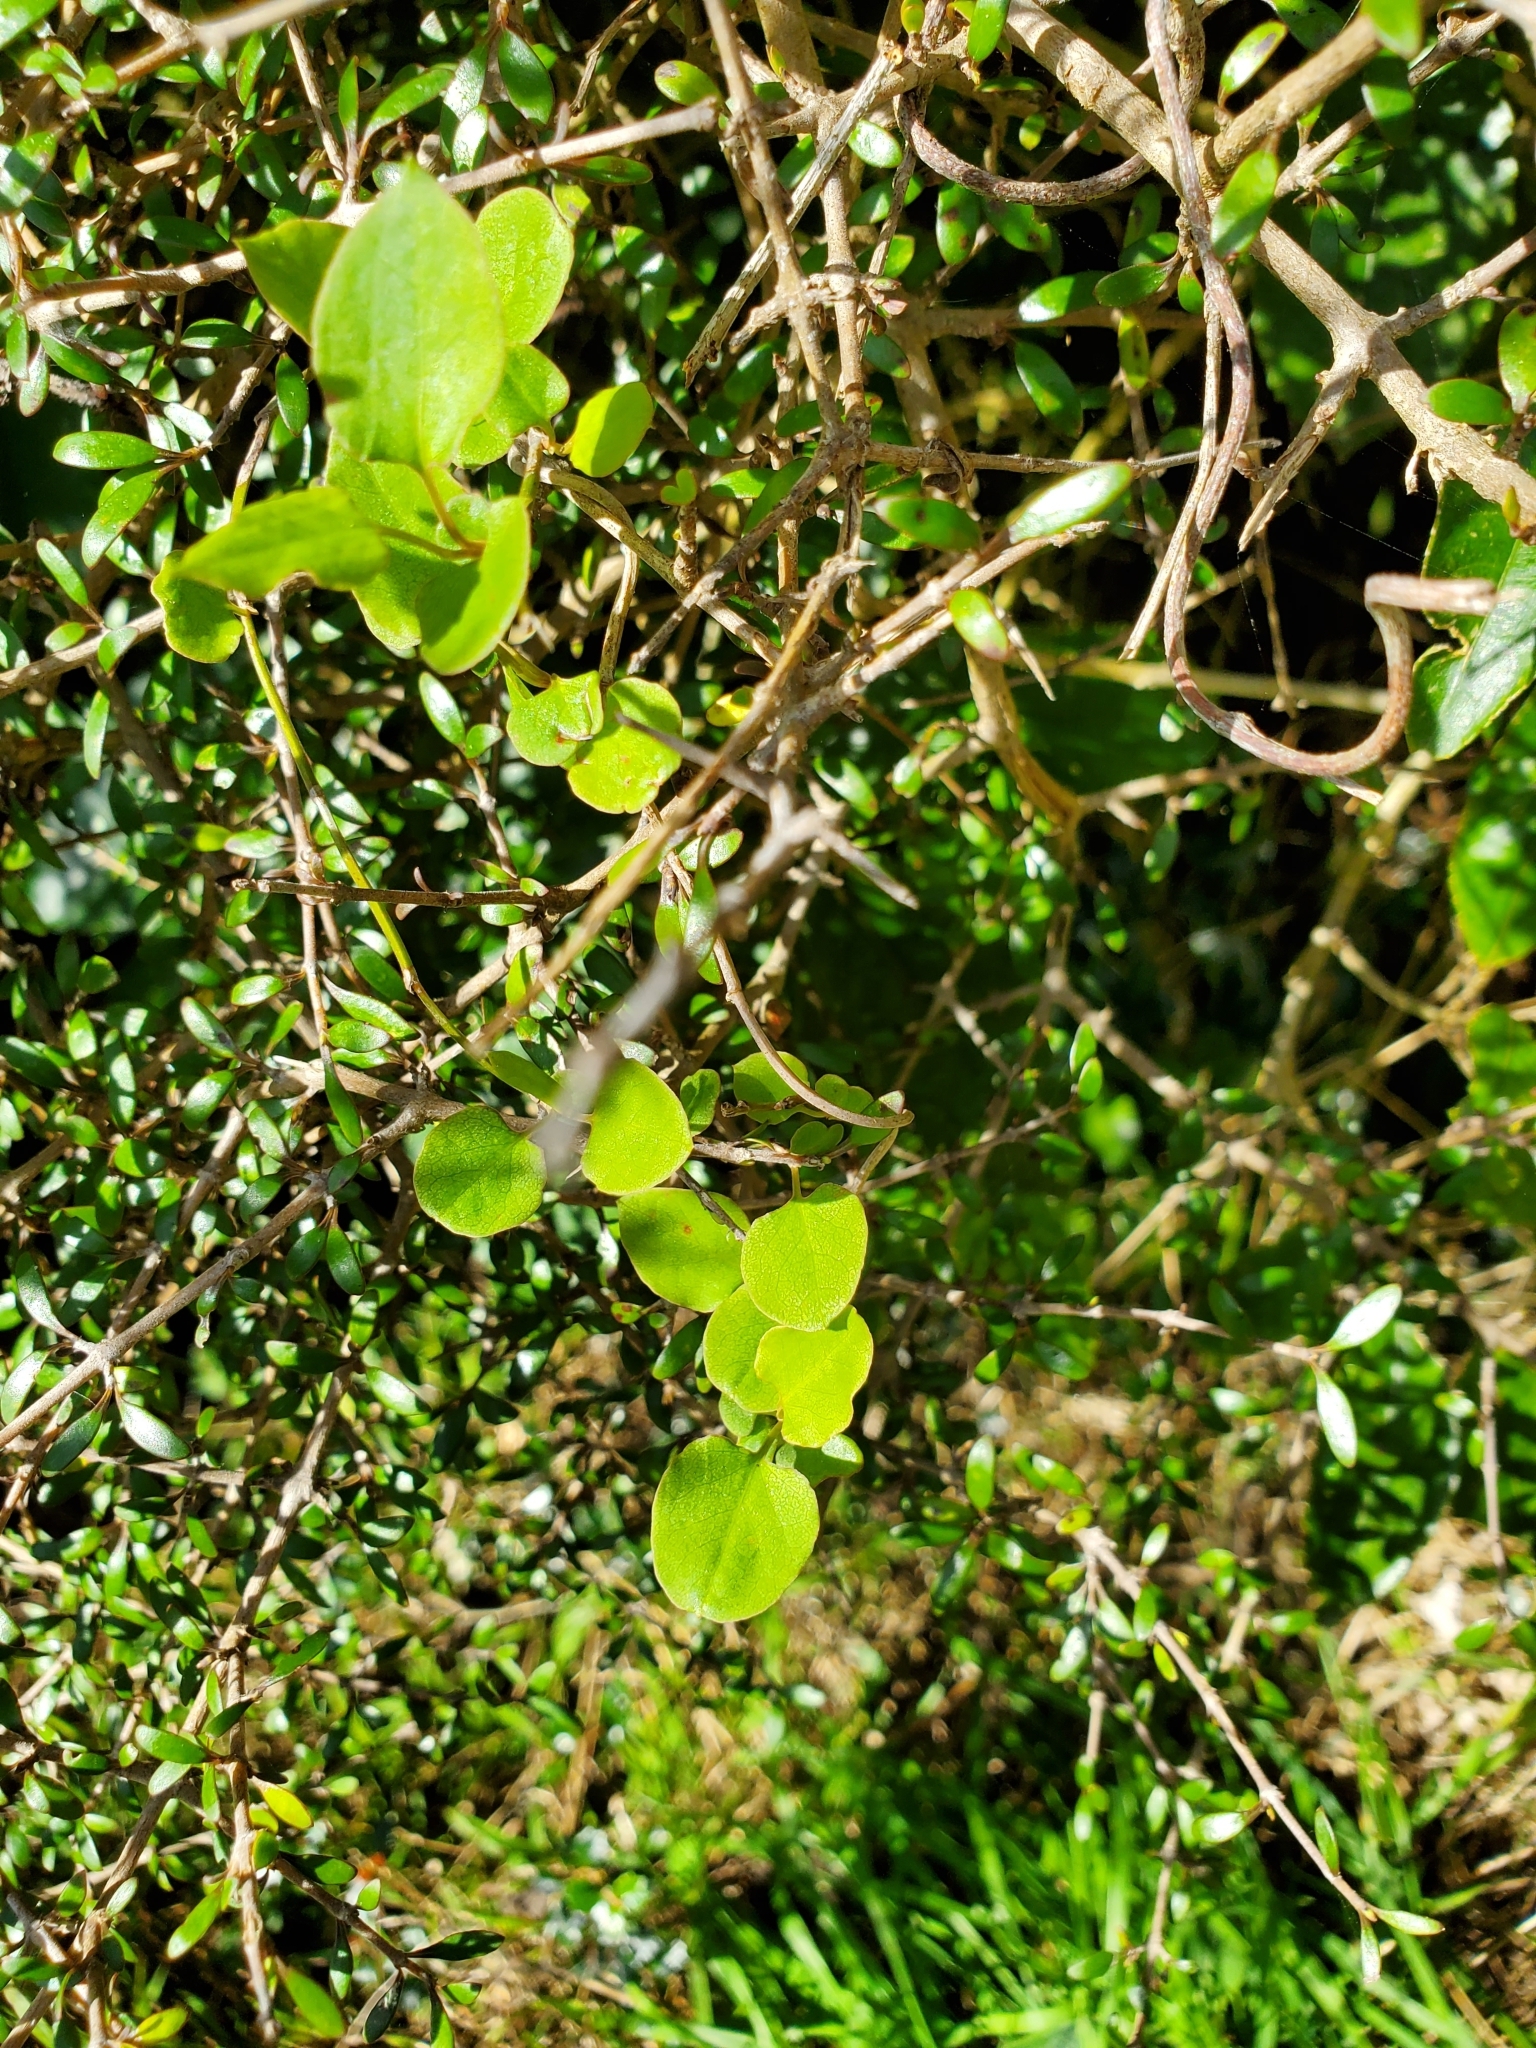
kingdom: Plantae
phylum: Tracheophyta
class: Magnoliopsida
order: Caryophyllales
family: Polygonaceae
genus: Muehlenbeckia
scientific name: Muehlenbeckia australis
